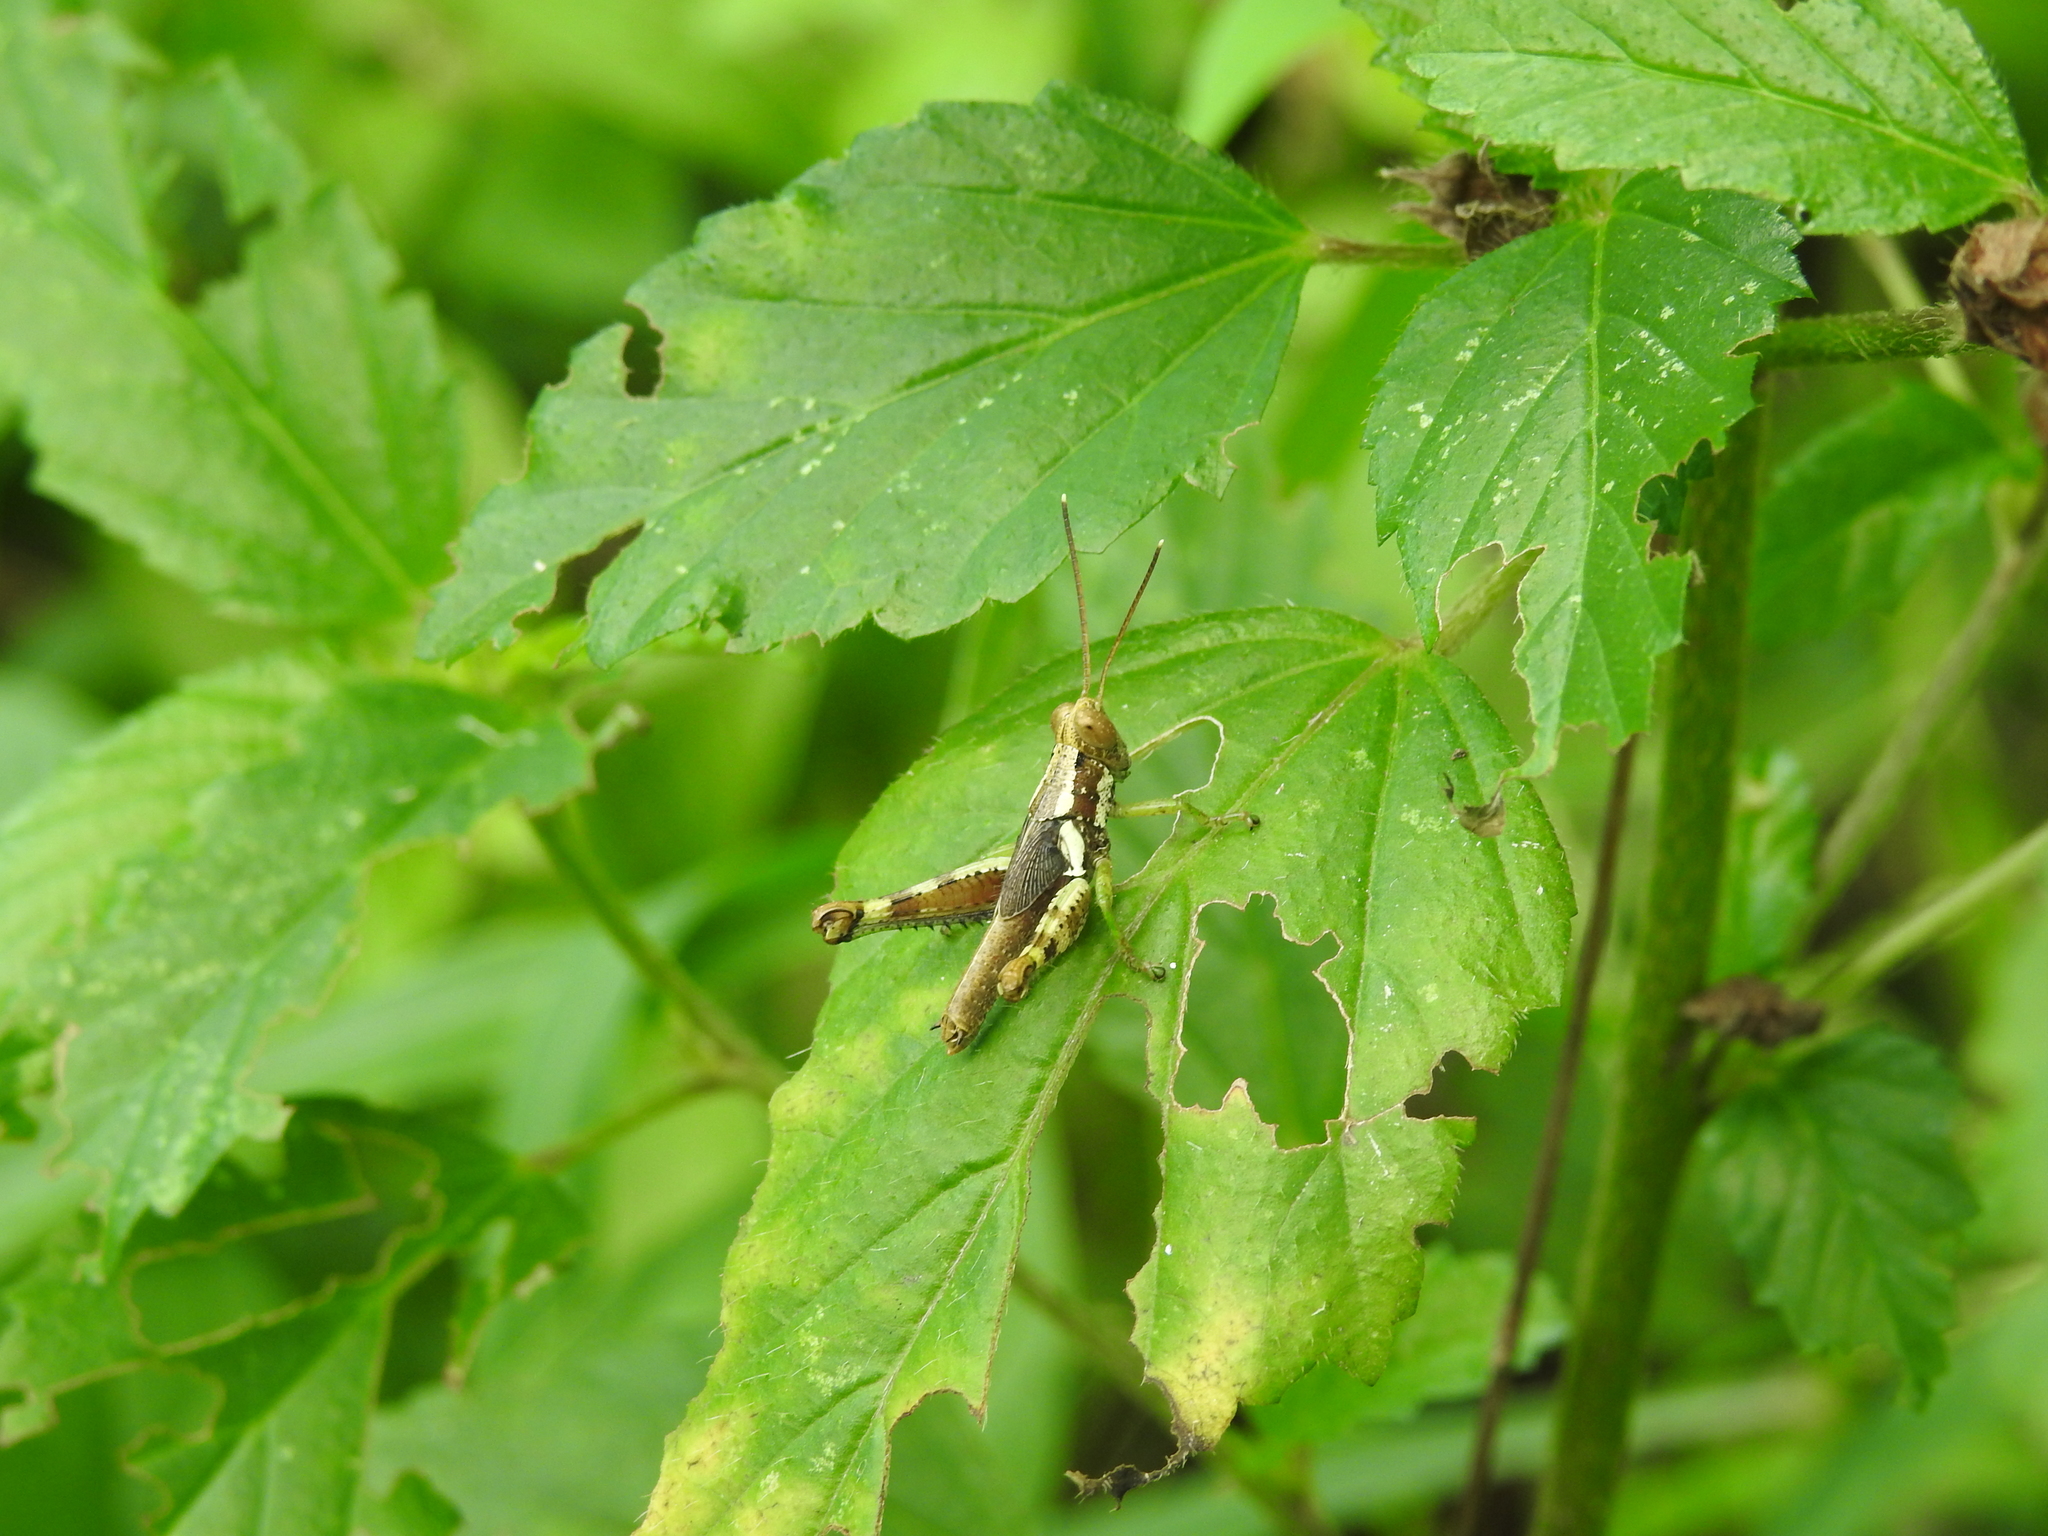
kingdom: Animalia
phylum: Arthropoda
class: Insecta
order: Orthoptera
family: Acrididae
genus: Pirithoicus
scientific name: Pirithoicus ophthalmicus
